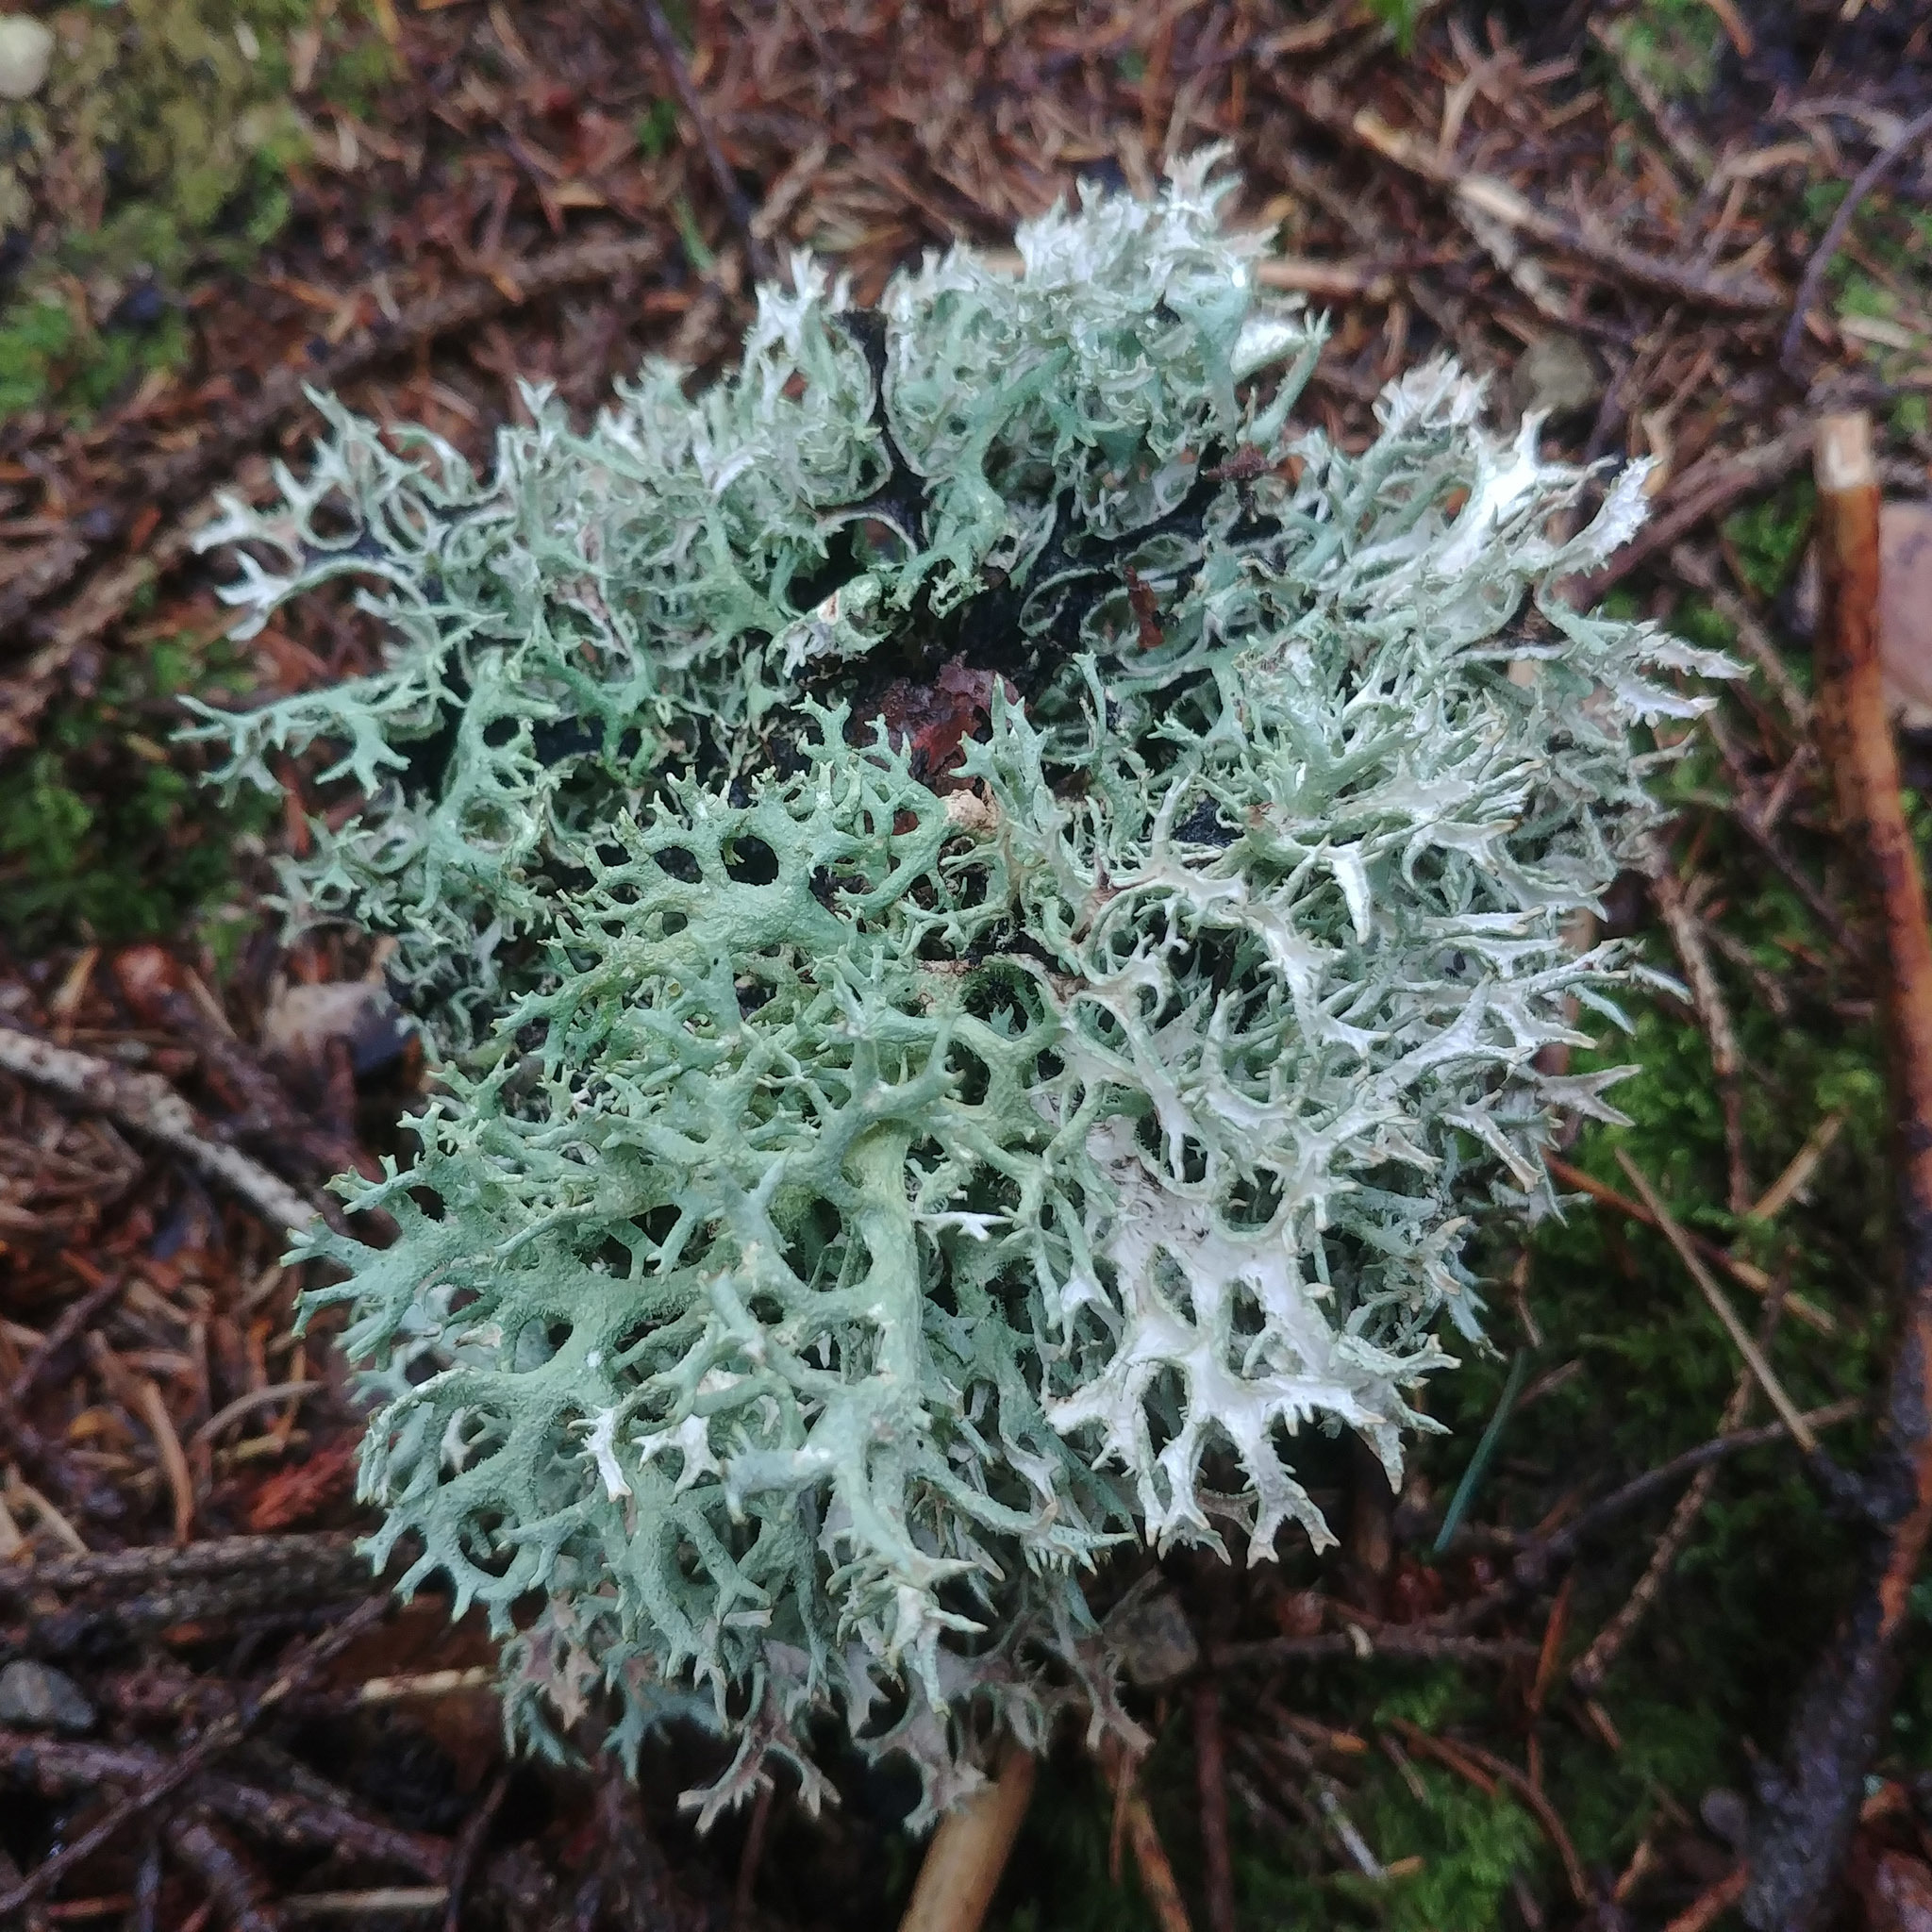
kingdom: Fungi
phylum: Ascomycota
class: Lecanoromycetes
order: Lecanorales
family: Parmeliaceae
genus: Pseudevernia
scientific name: Pseudevernia furfuracea
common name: Tree moss
